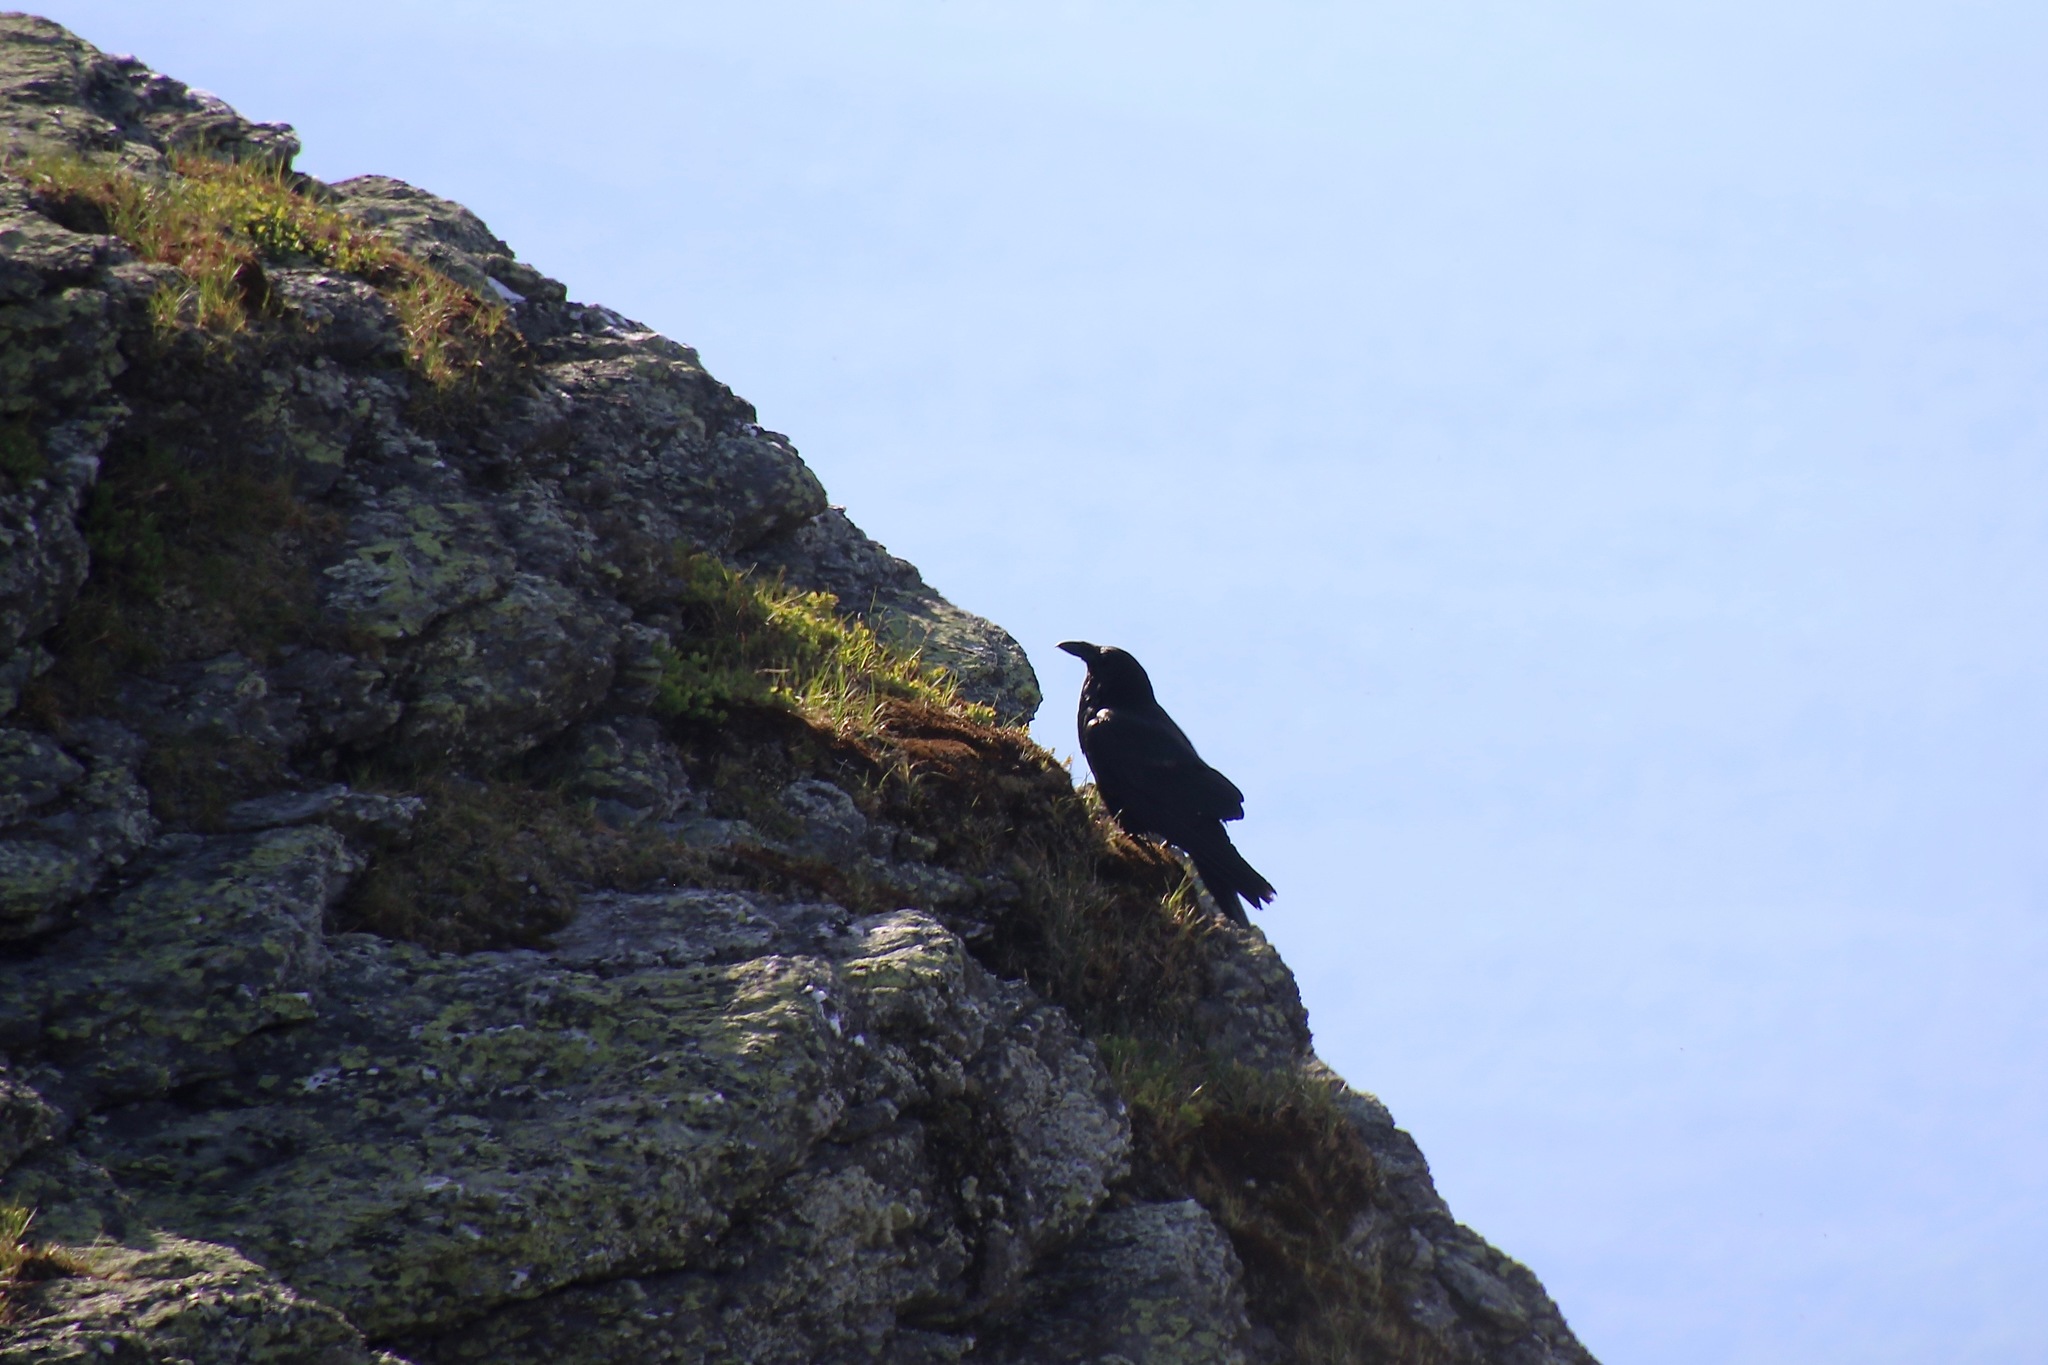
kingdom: Animalia
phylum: Chordata
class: Aves
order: Passeriformes
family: Corvidae
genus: Corvus
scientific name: Corvus corax
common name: Common raven
